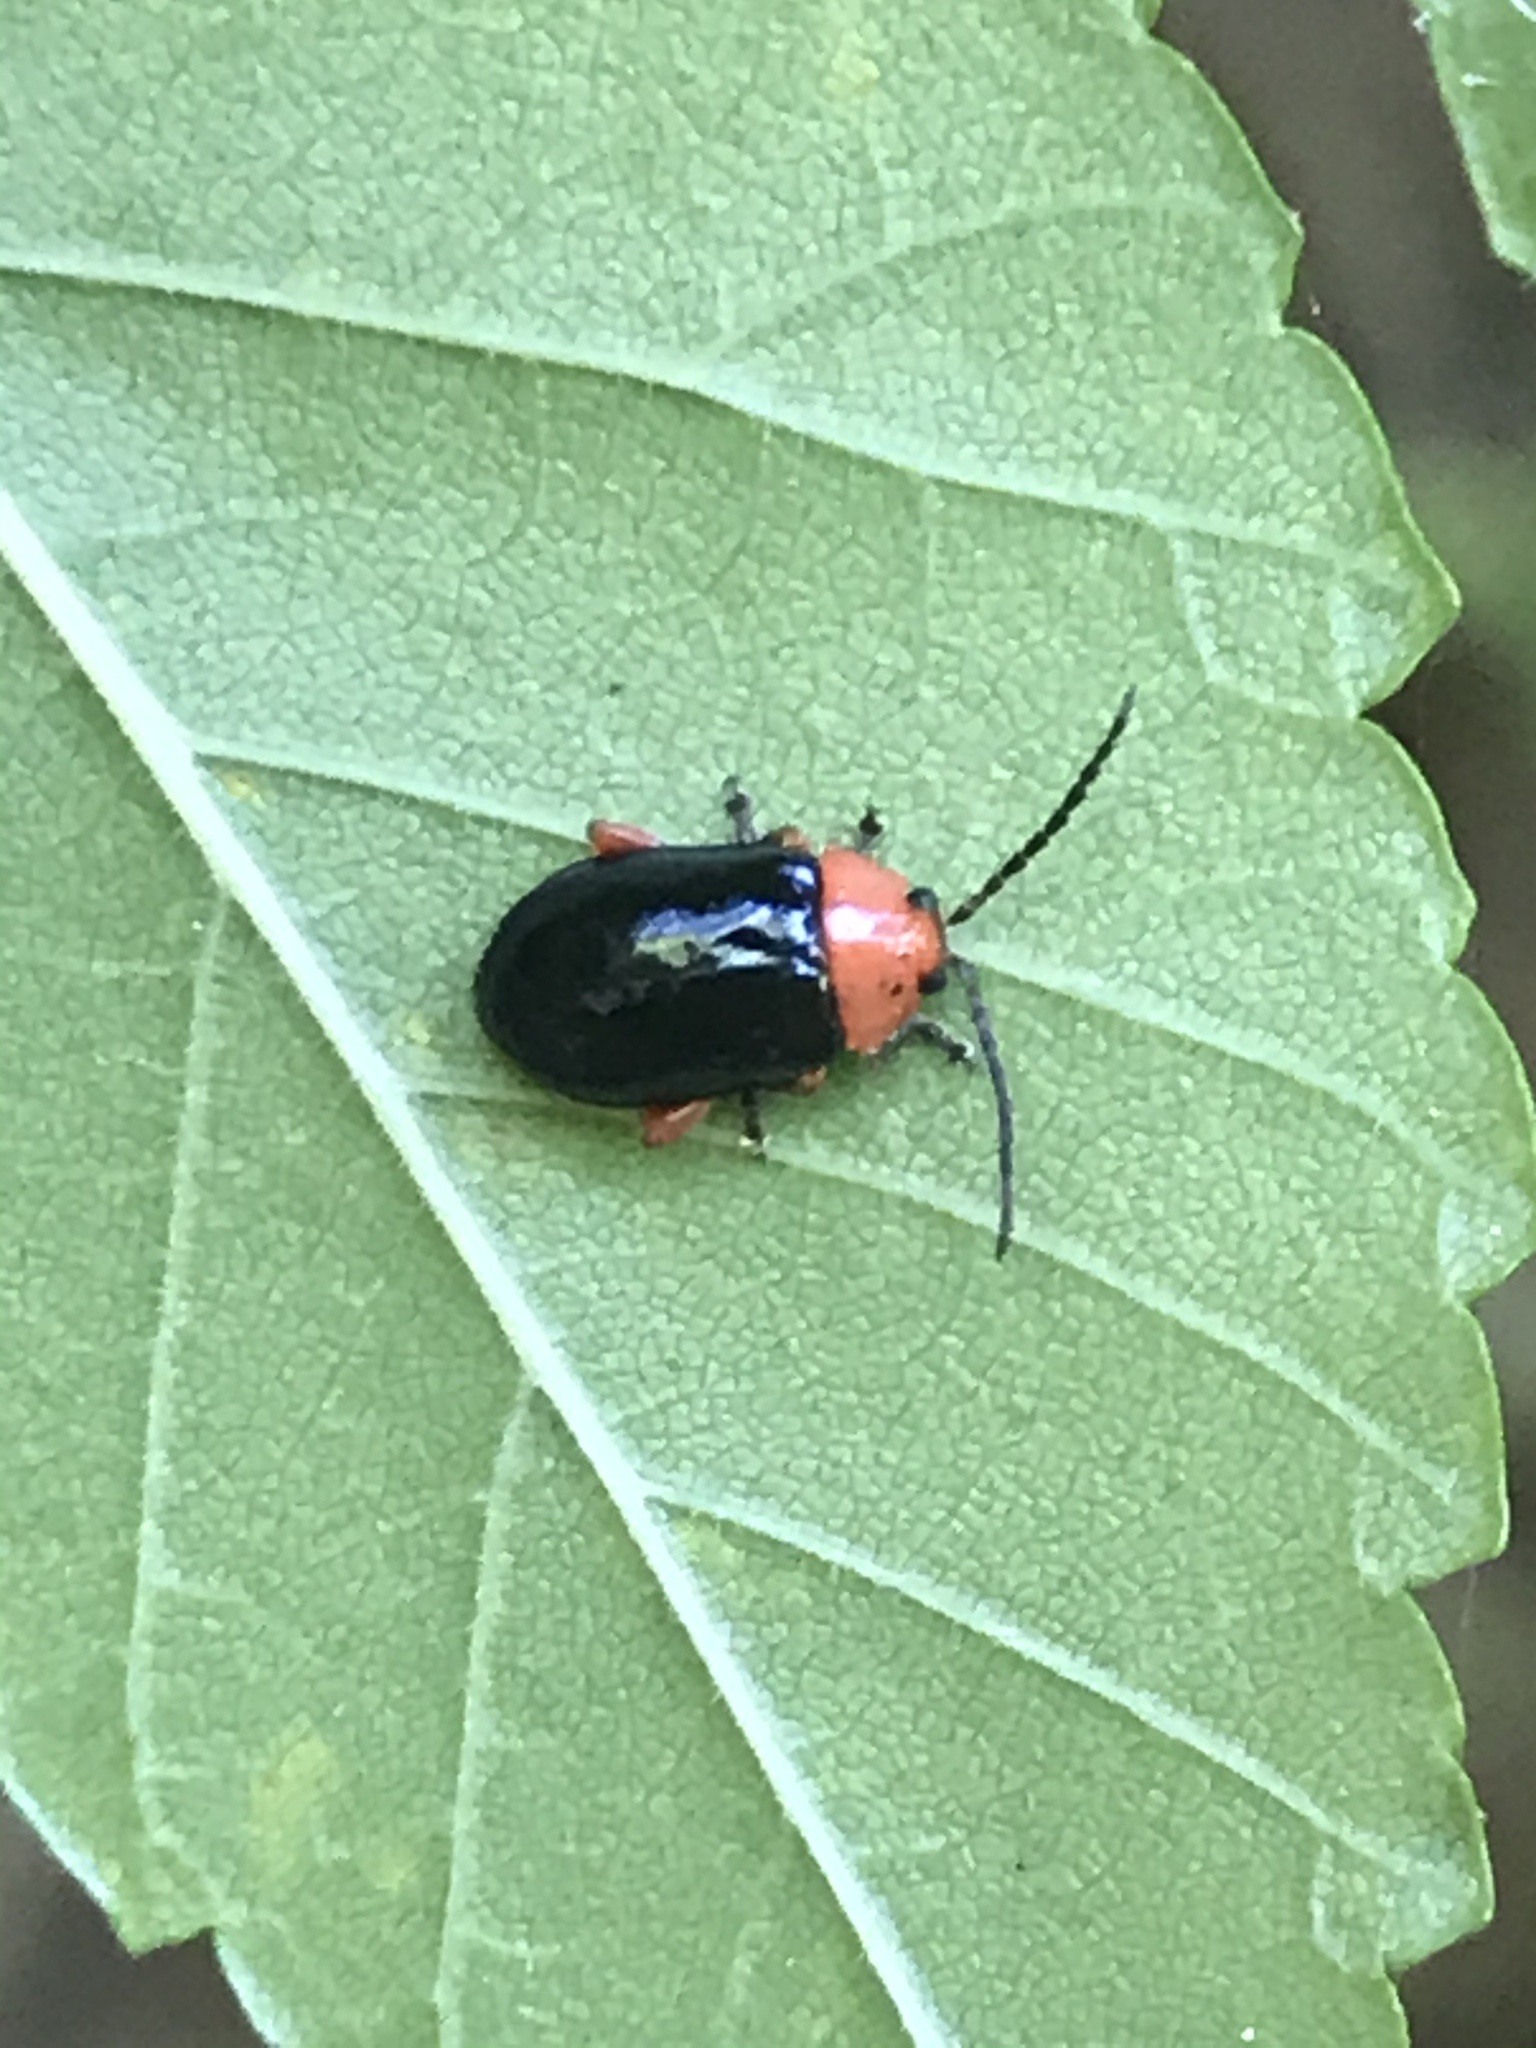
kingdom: Animalia
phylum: Arthropoda
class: Insecta
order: Coleoptera
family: Chrysomelidae
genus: Asphaera
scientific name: Asphaera lustrans
